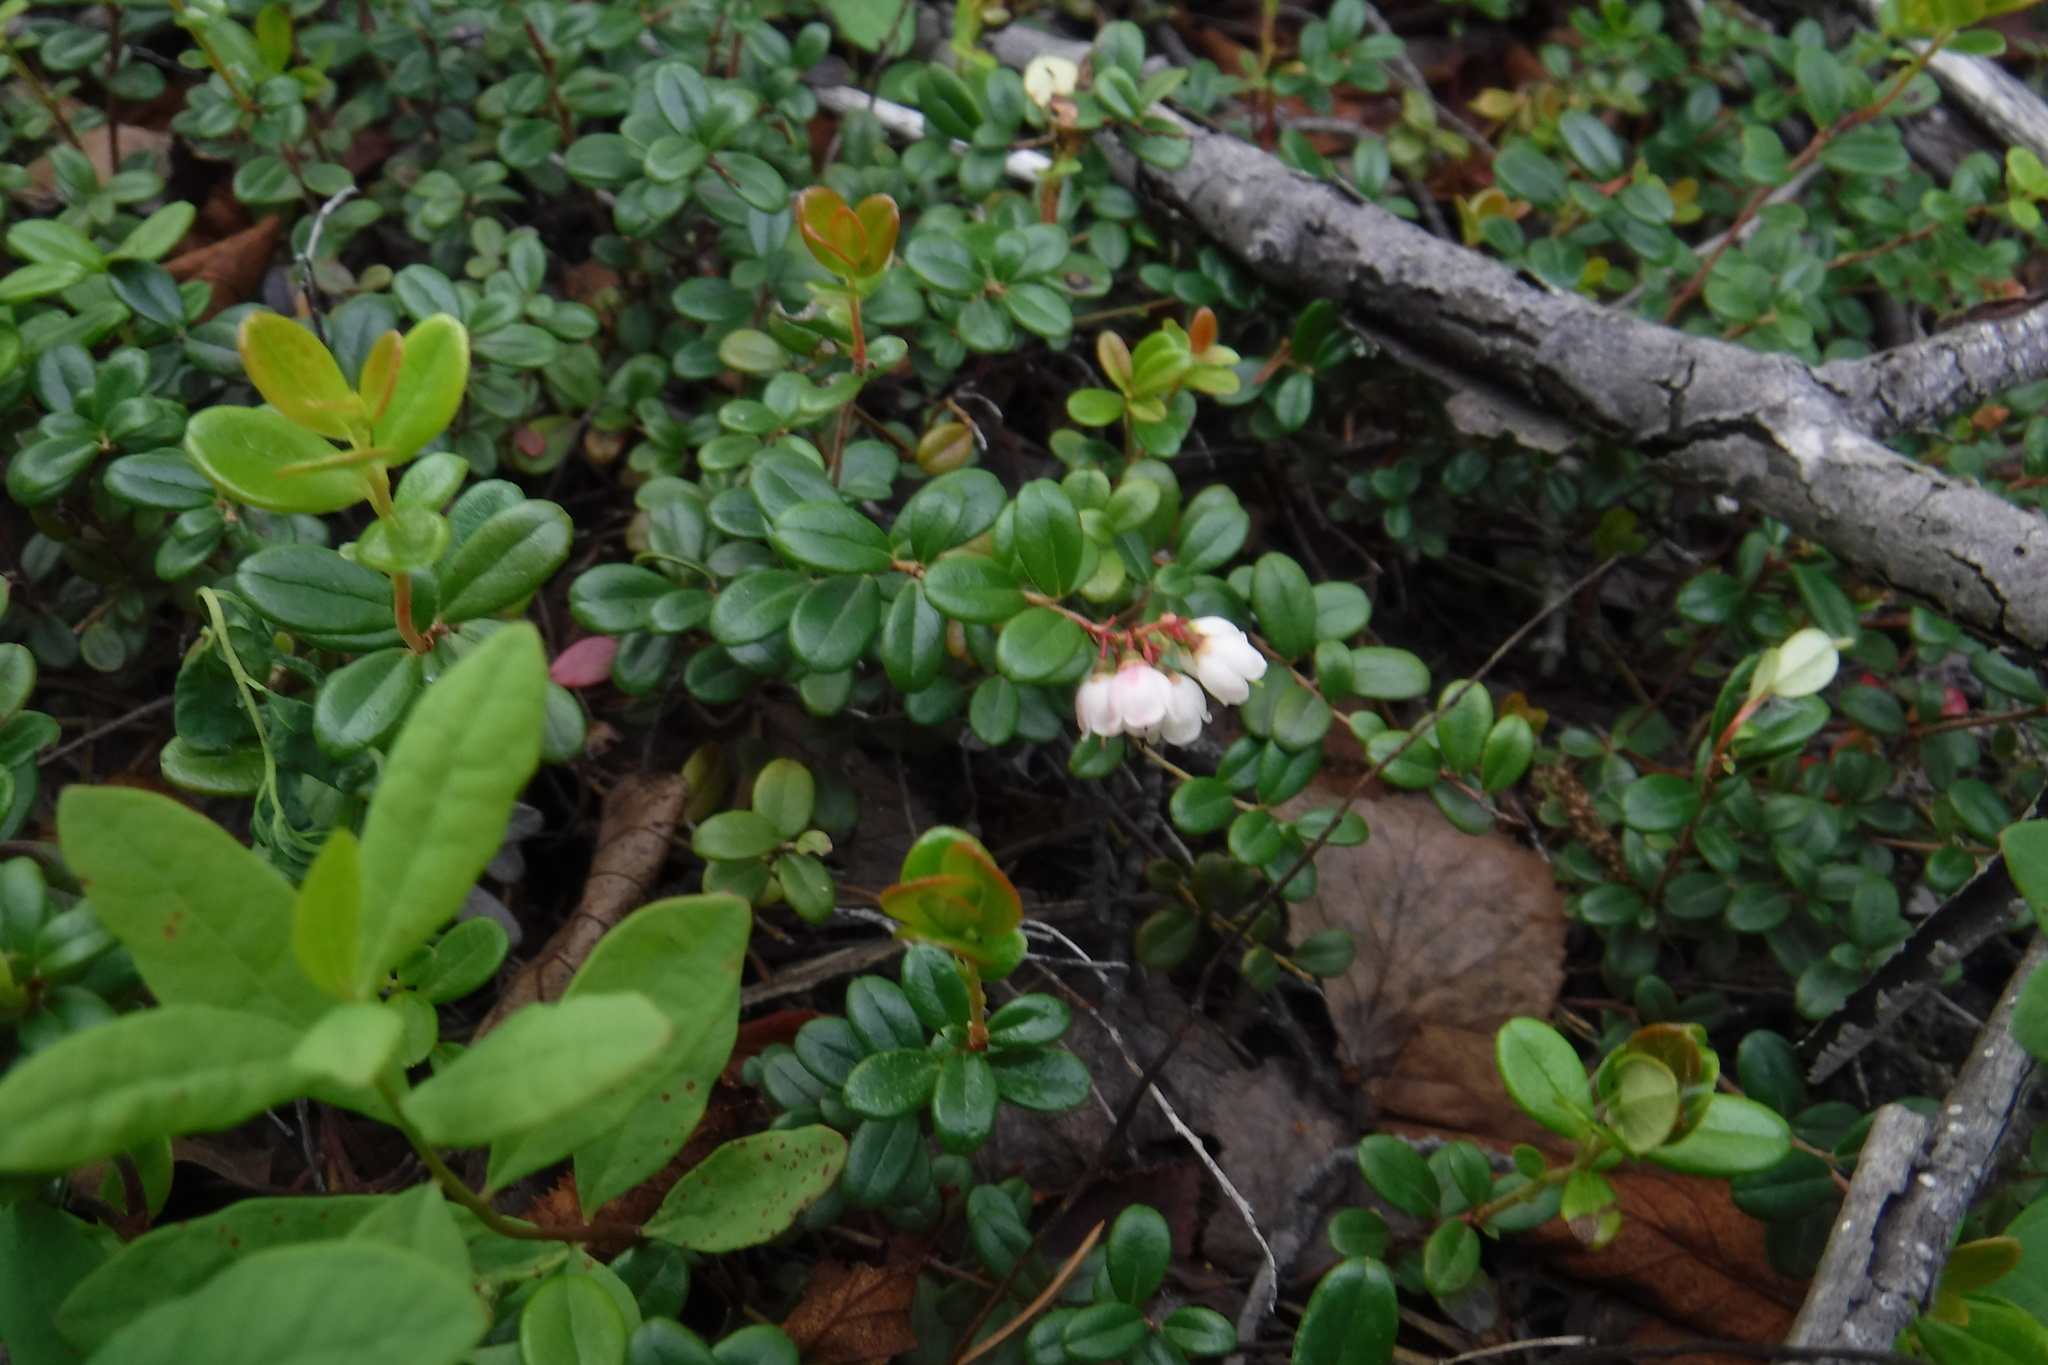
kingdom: Plantae
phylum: Tracheophyta
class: Magnoliopsida
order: Ericales
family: Ericaceae
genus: Vaccinium
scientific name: Vaccinium vitis-idaea
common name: Cowberry
